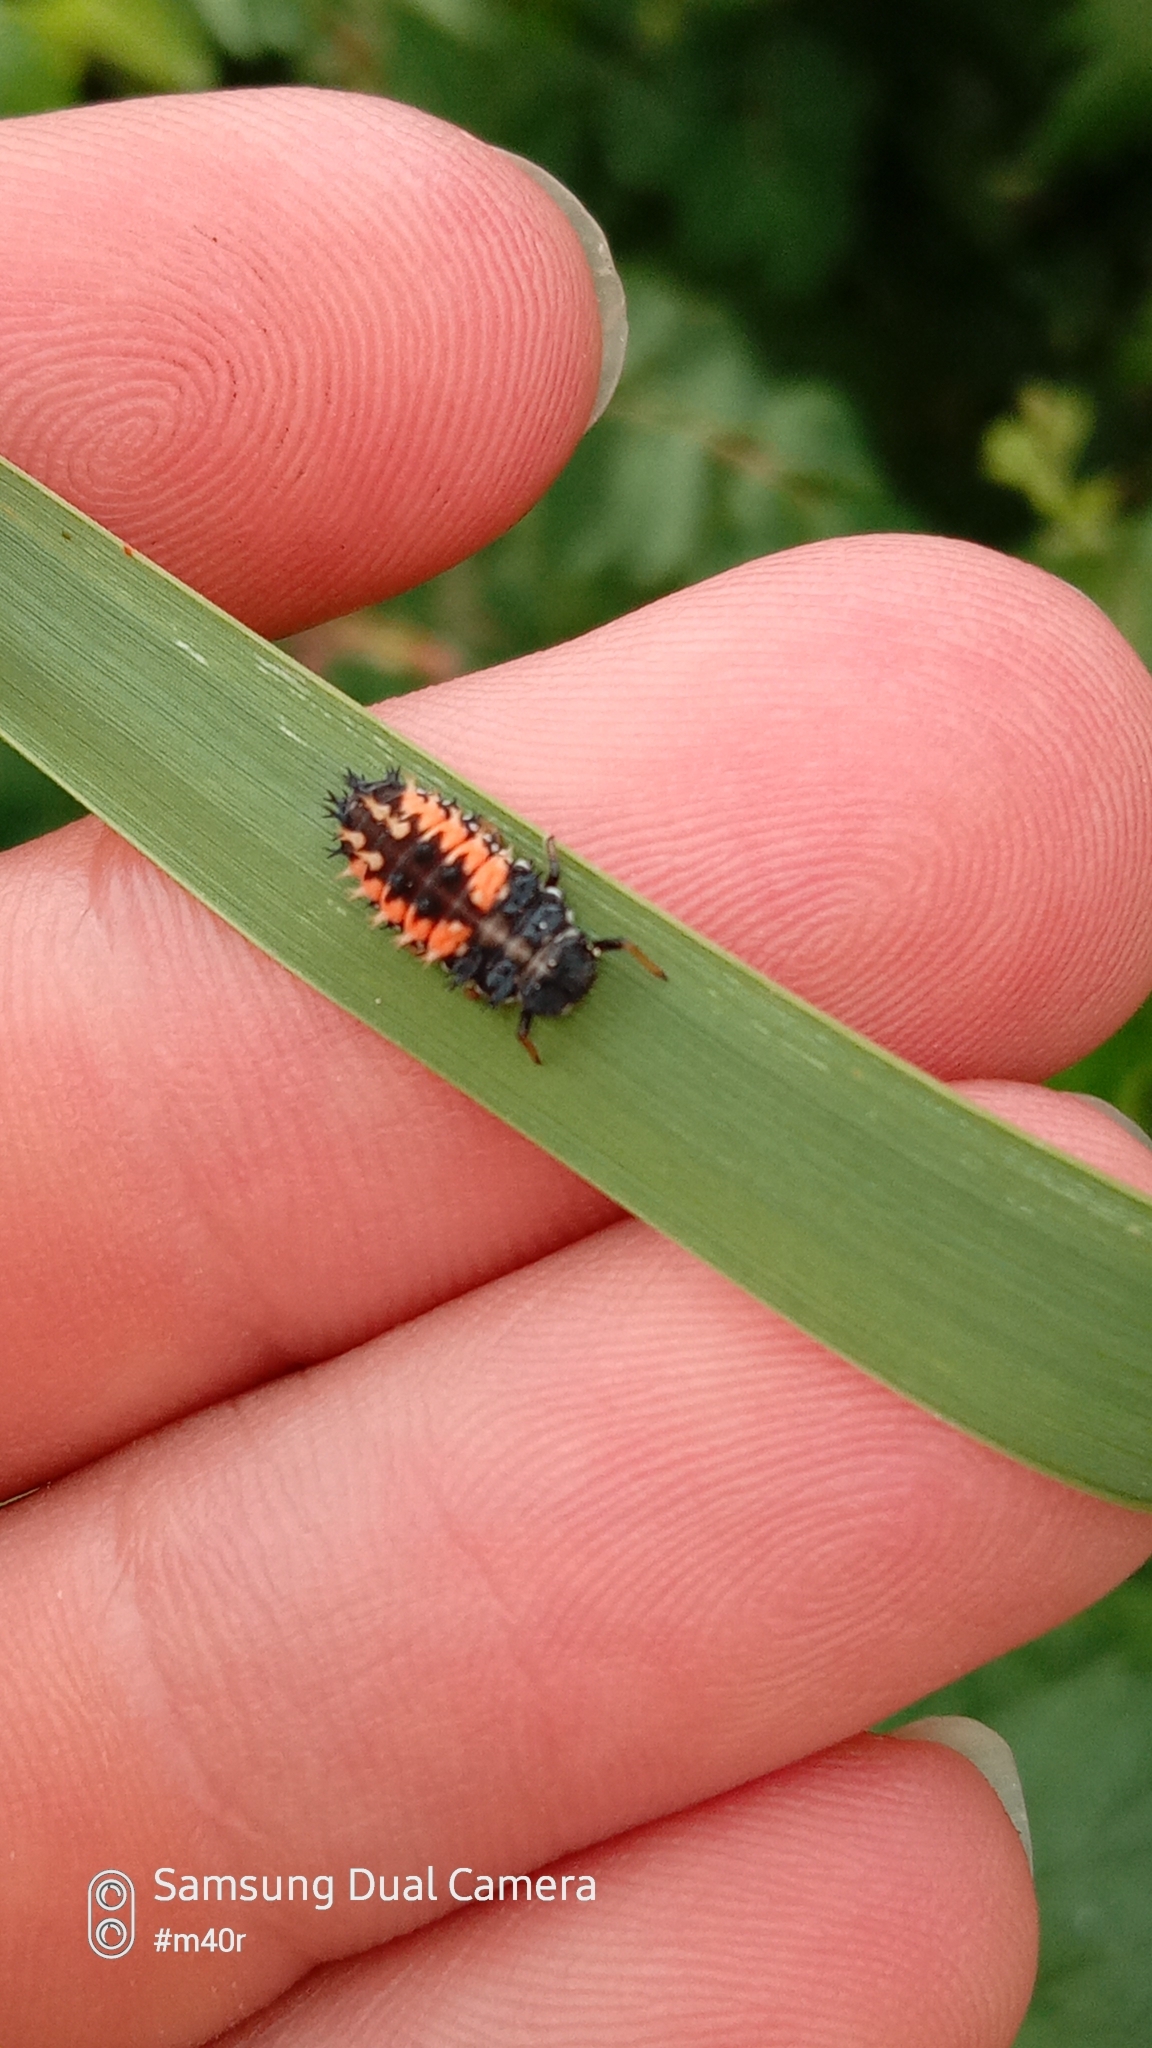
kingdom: Animalia
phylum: Arthropoda
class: Insecta
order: Coleoptera
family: Coccinellidae
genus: Harmonia
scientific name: Harmonia axyridis
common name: Harlequin ladybird
